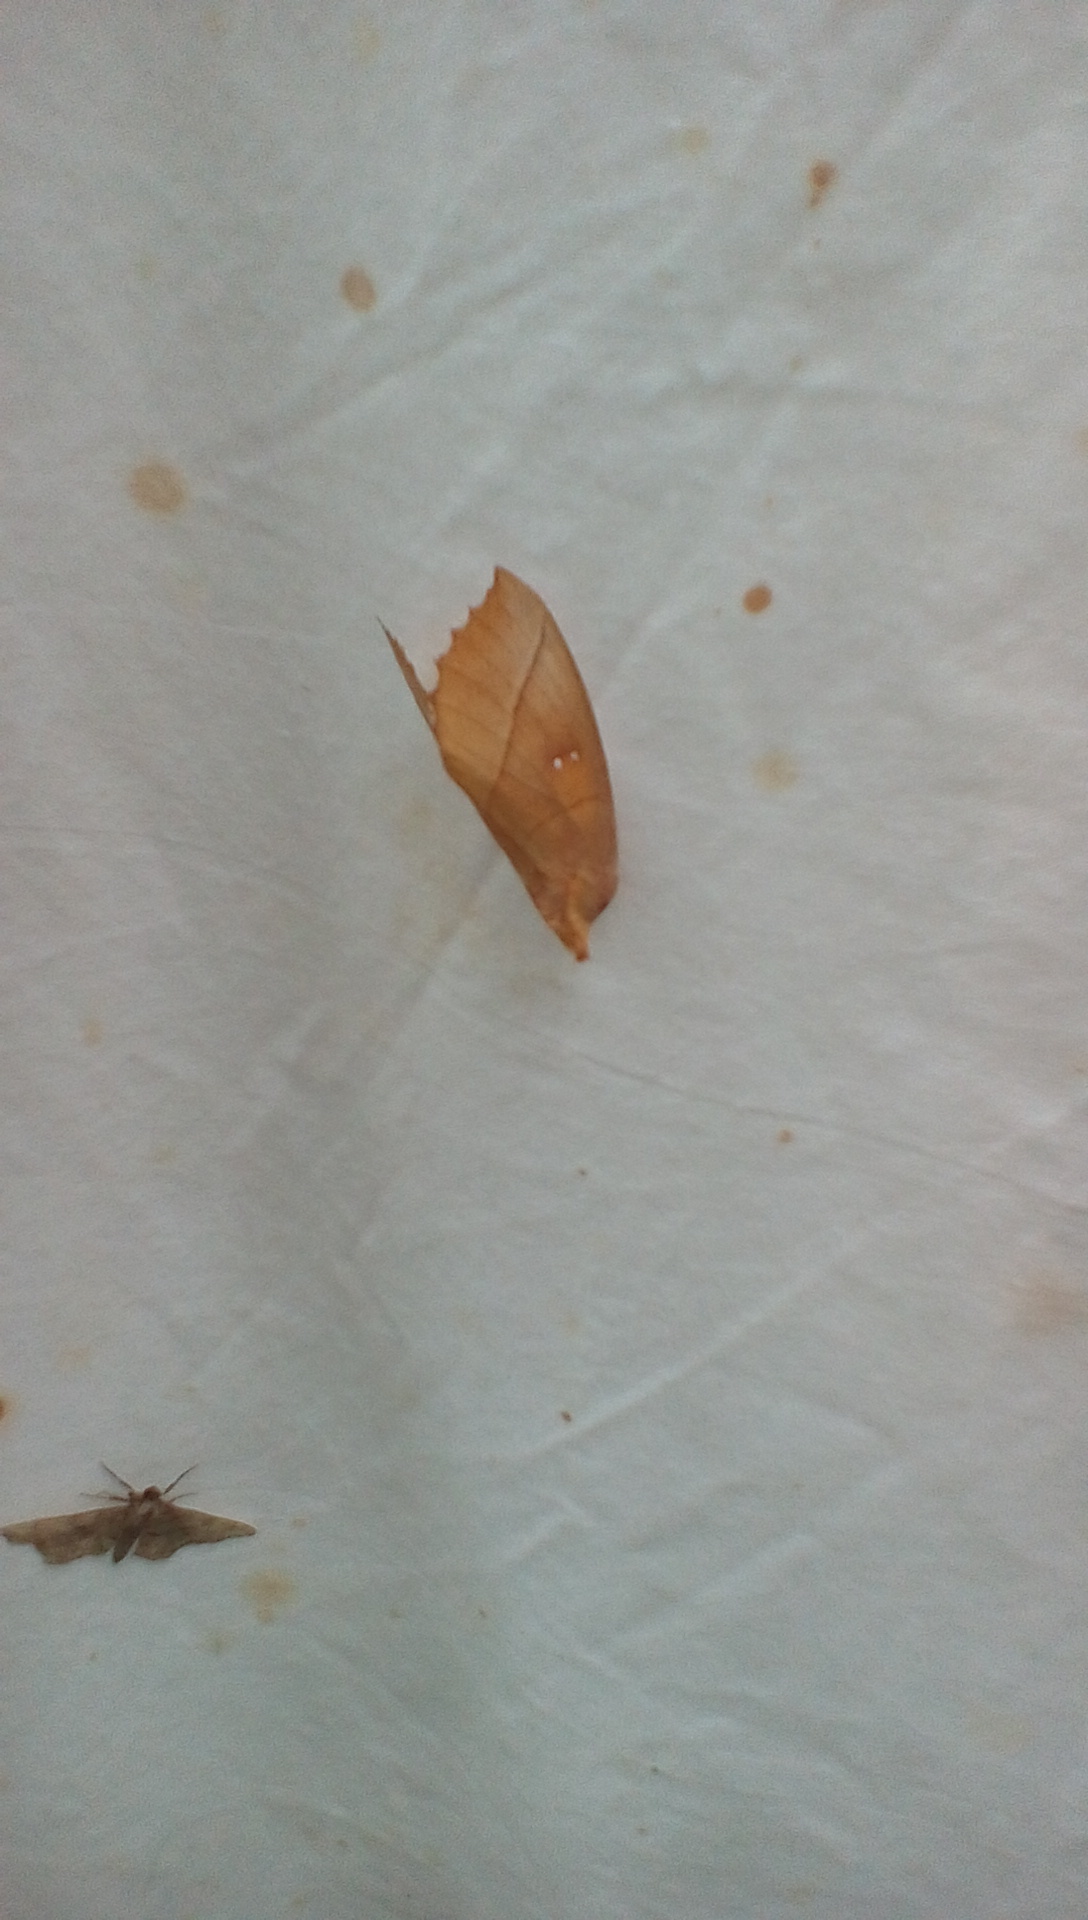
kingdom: Animalia
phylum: Arthropoda
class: Insecta
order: Lepidoptera
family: Notodontidae
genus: Nadata
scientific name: Nadata gibbosa
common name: White-dotted prominent
